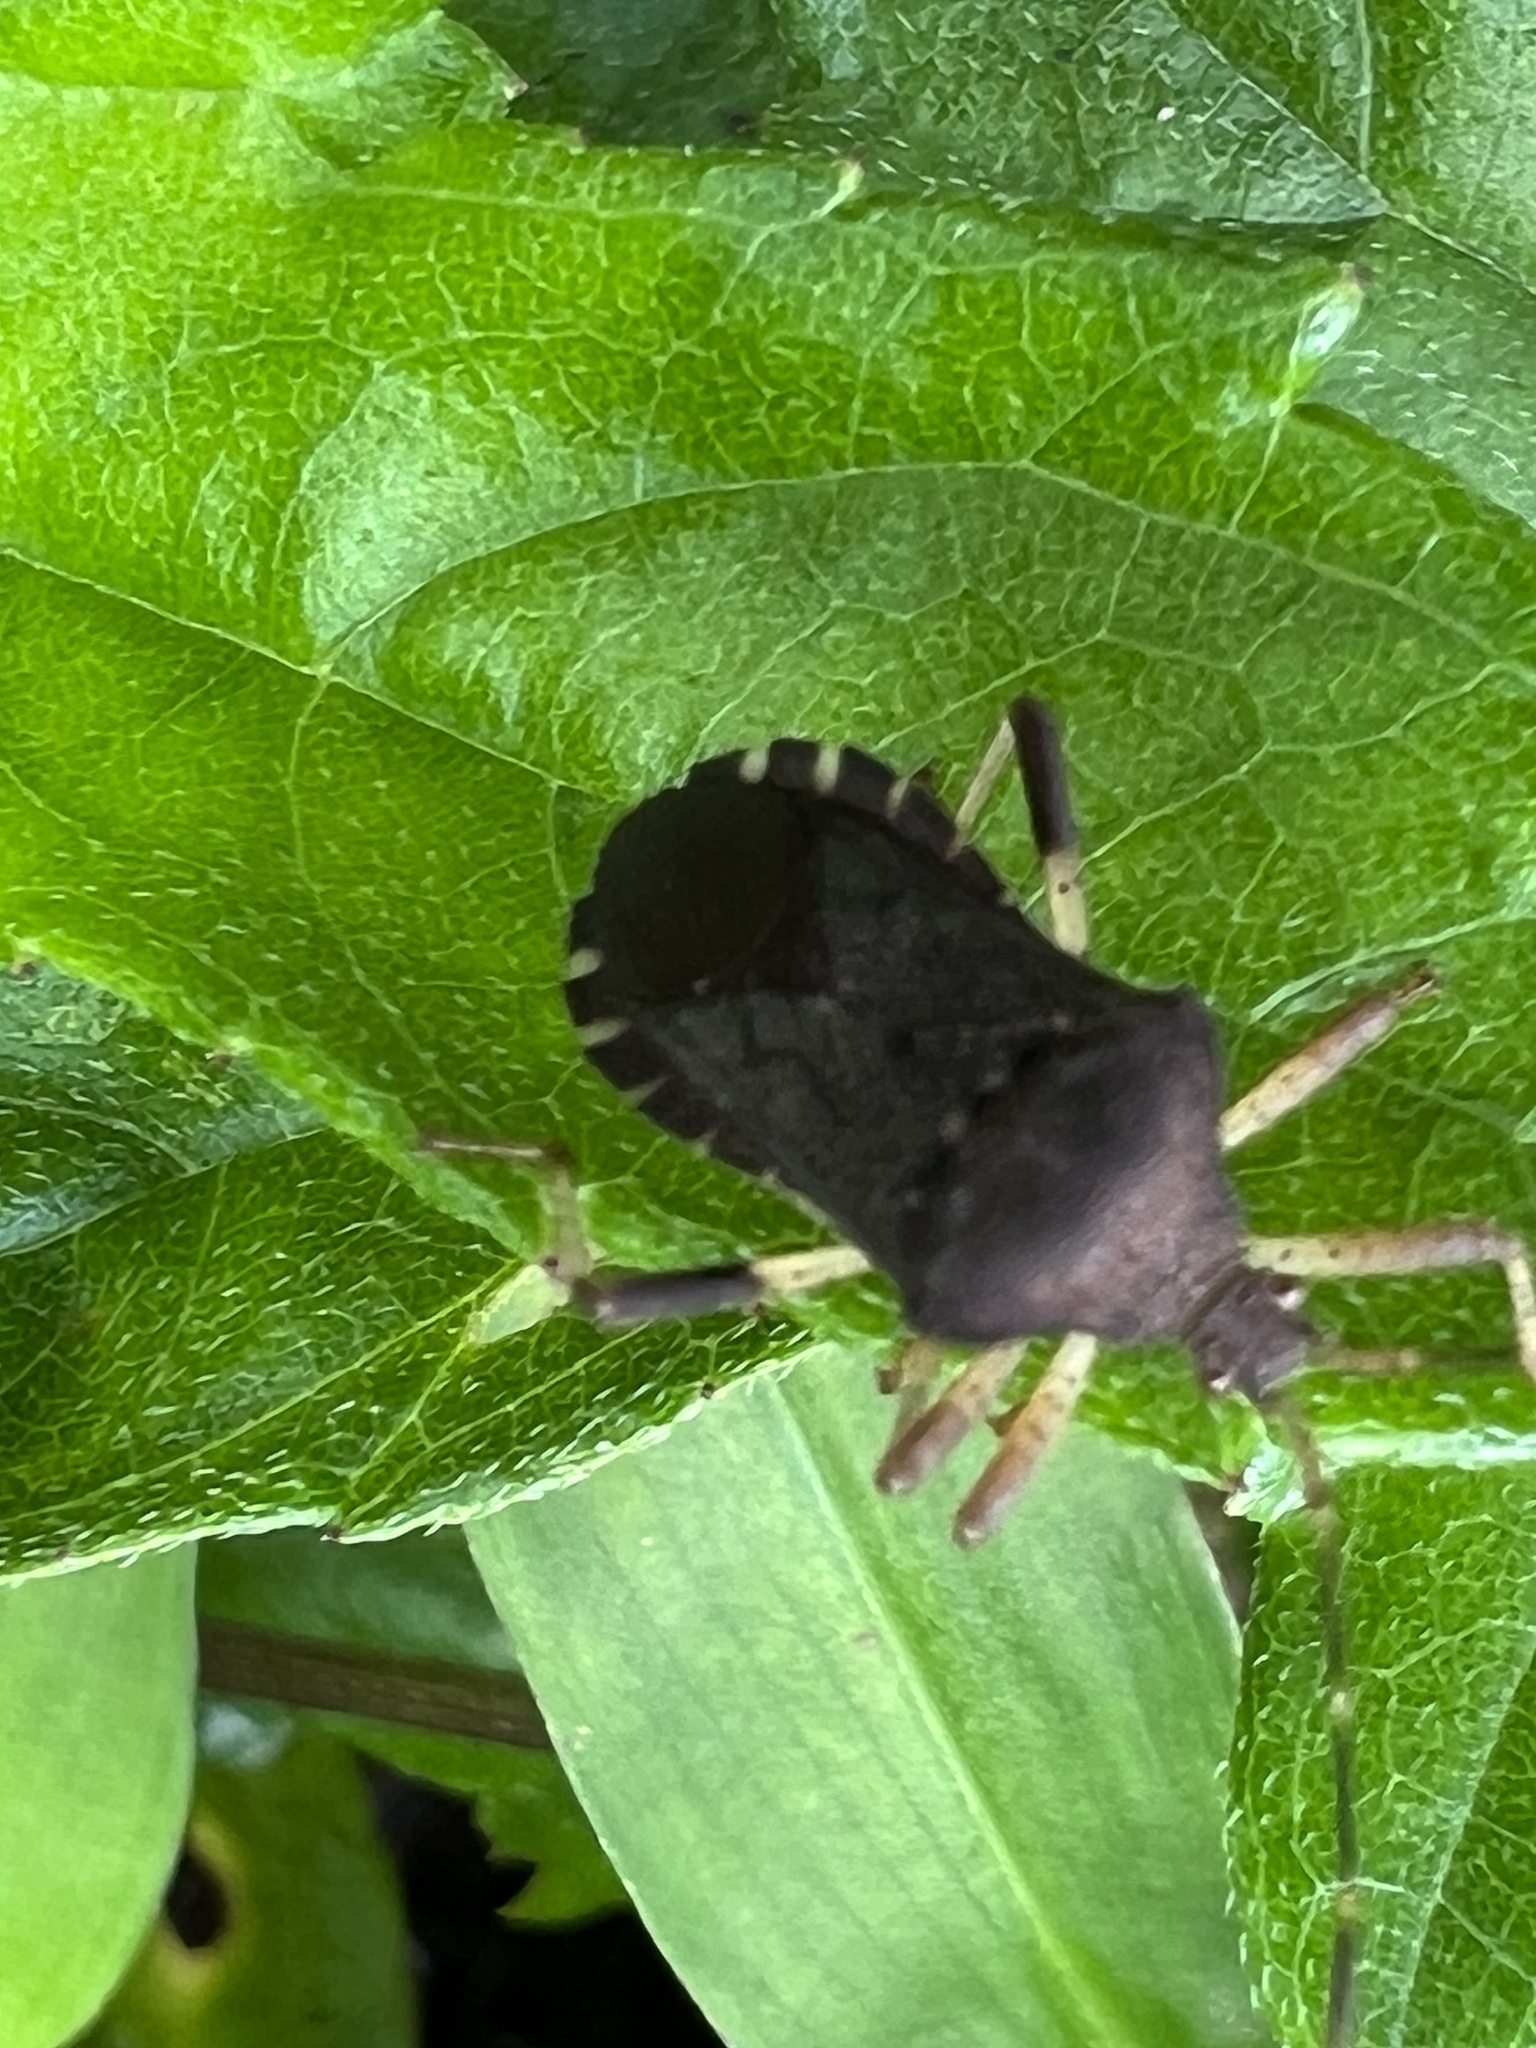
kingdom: Animalia
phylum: Arthropoda
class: Insecta
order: Hemiptera
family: Coreidae
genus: Anasa
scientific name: Anasa scorbutica
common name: Squash bug
